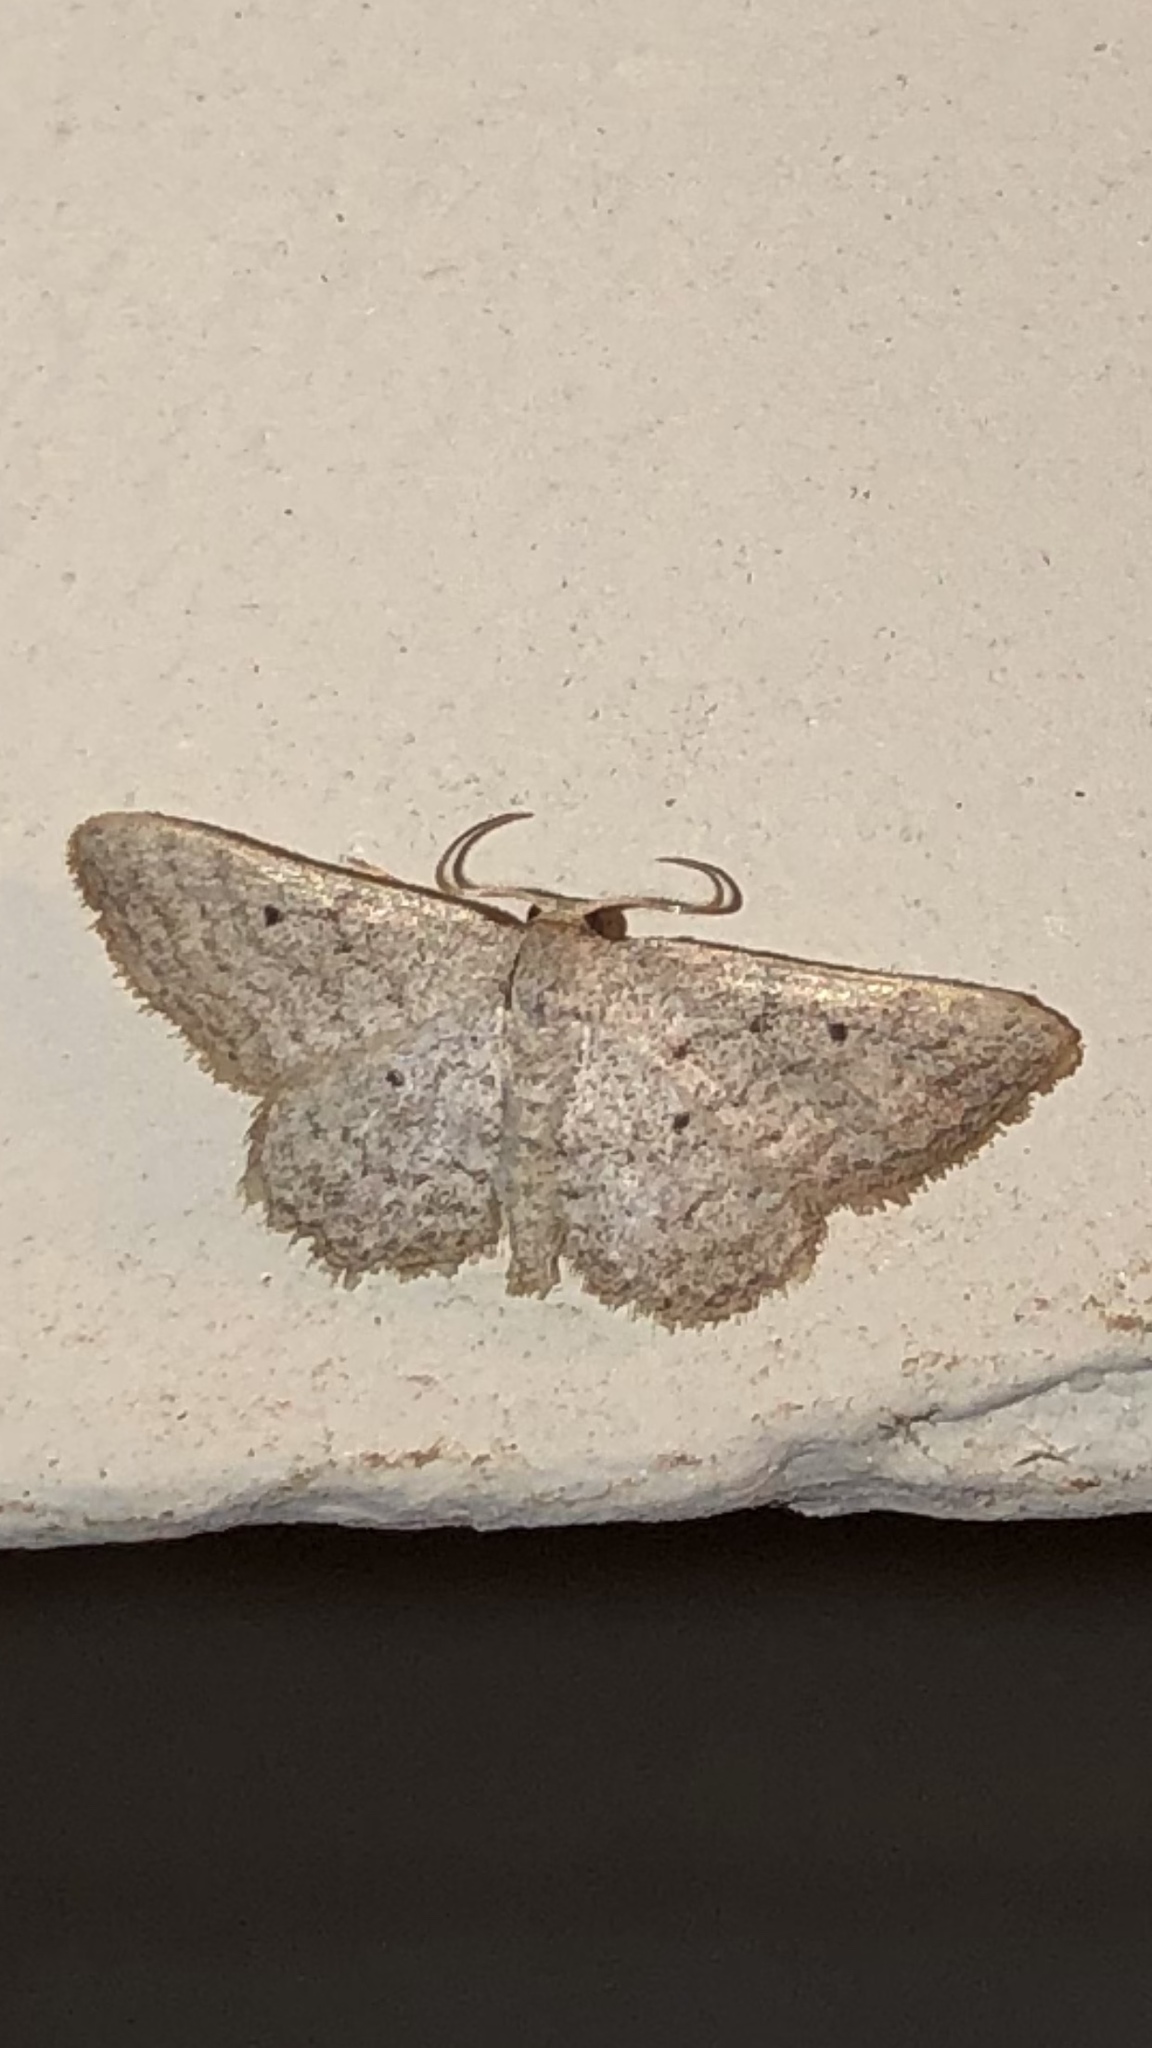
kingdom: Animalia
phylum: Arthropoda
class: Insecta
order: Lepidoptera
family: Geometridae
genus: Lobocleta
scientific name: Lobocleta ossularia
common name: Drab brown wave
